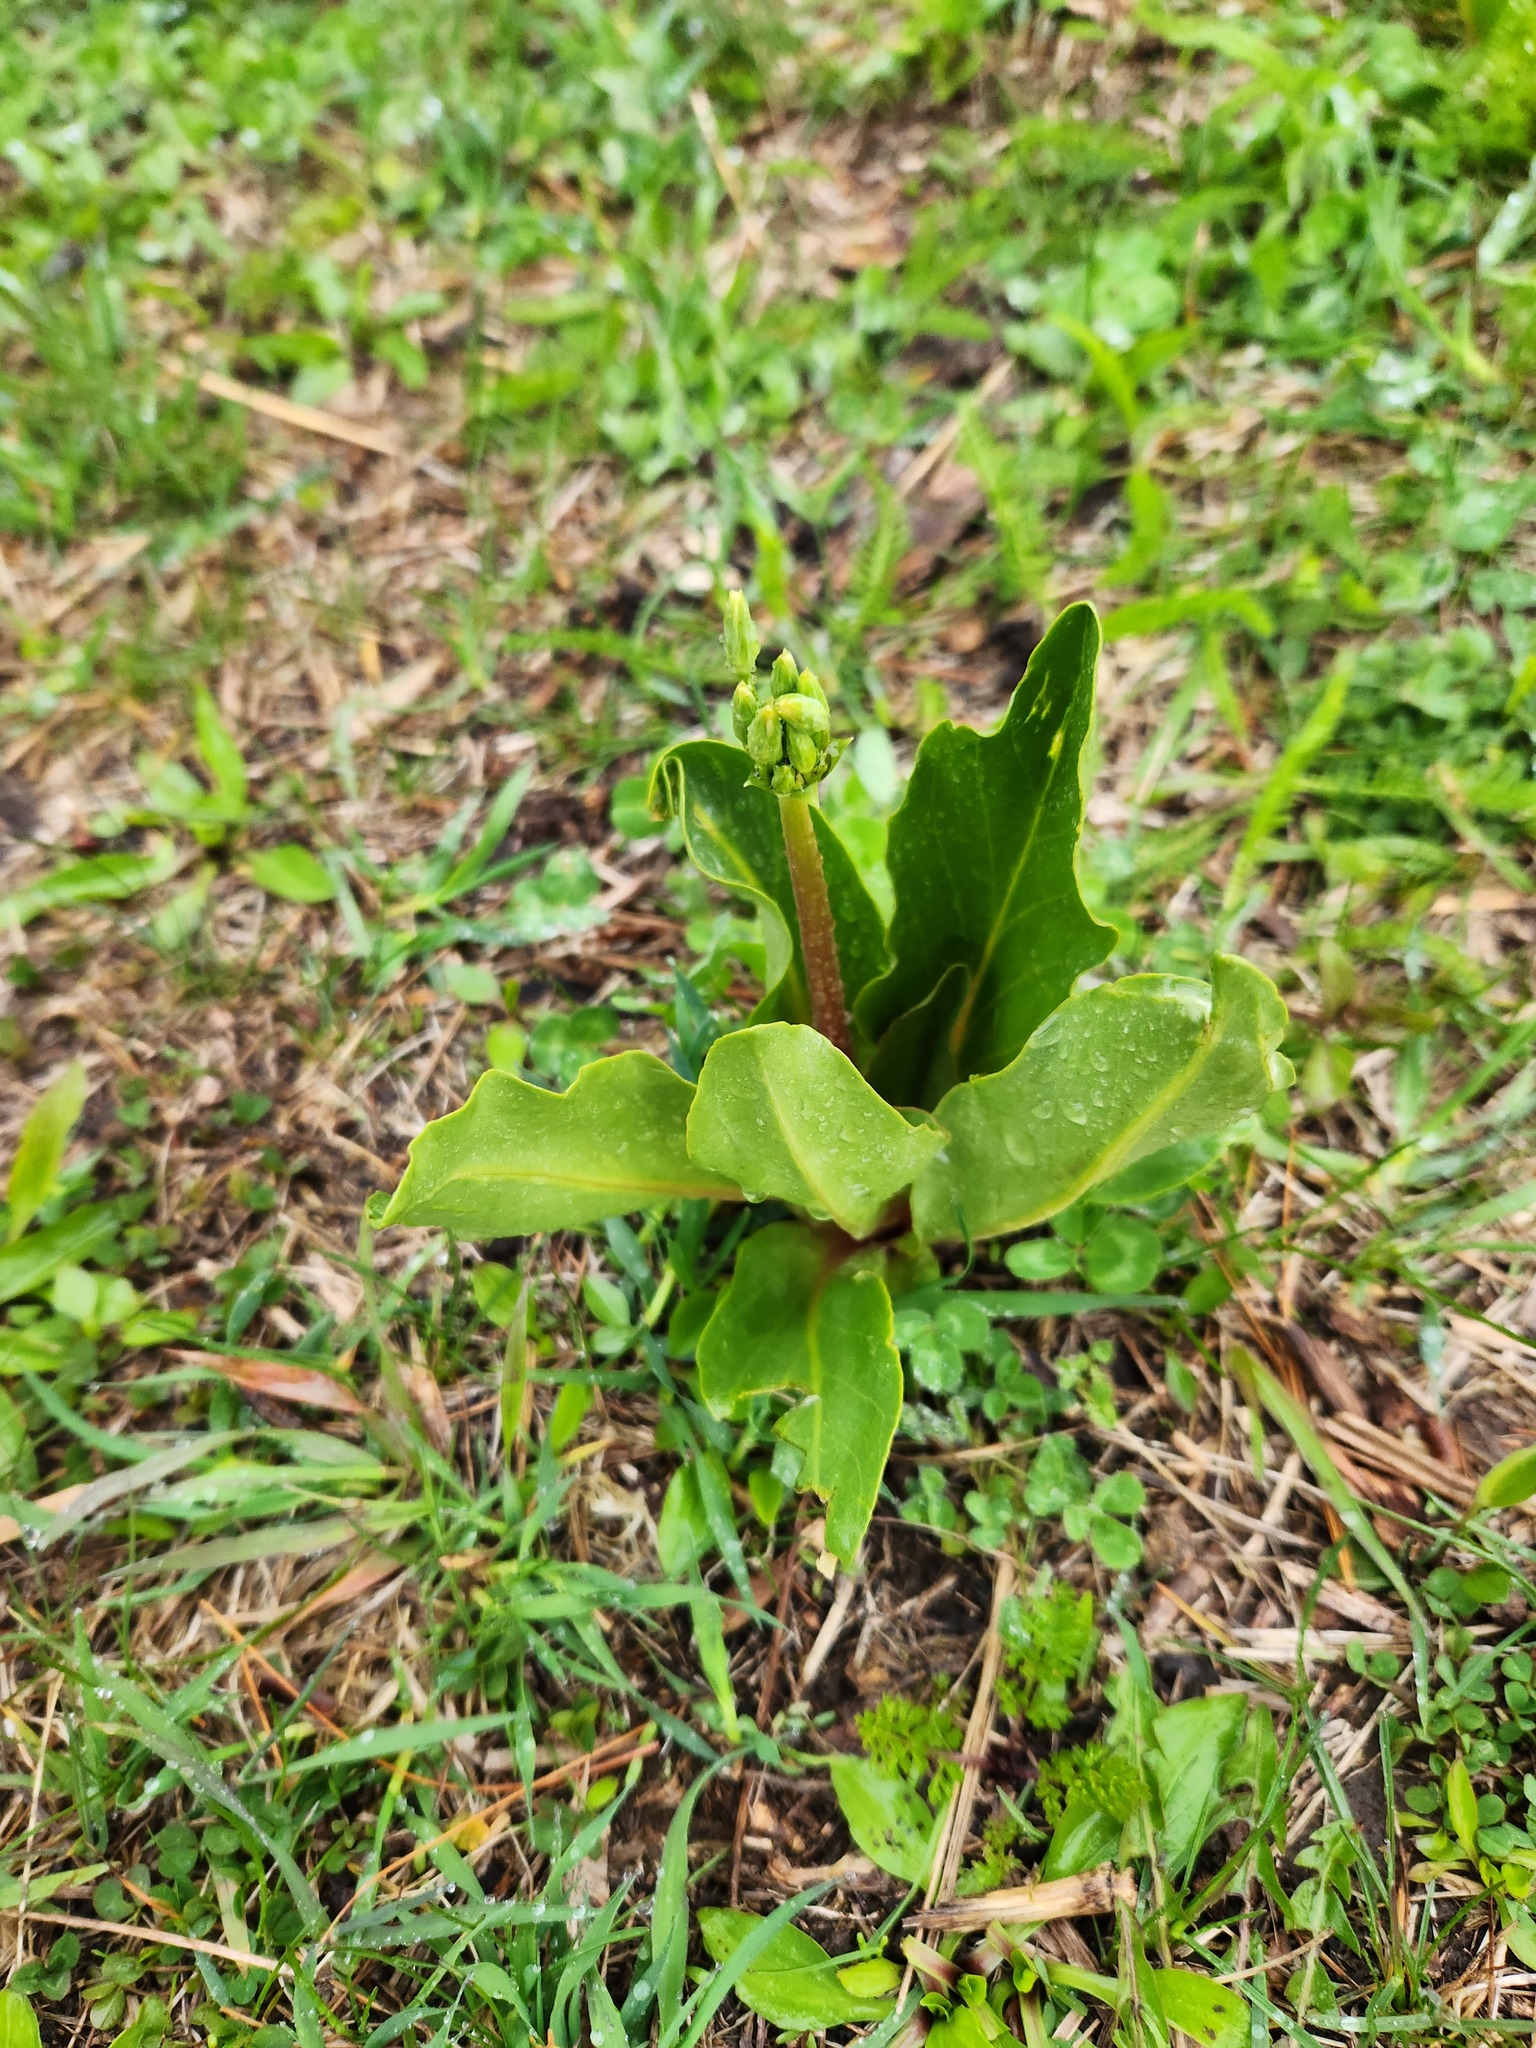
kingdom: Plantae
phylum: Tracheophyta
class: Magnoliopsida
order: Ericales
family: Primulaceae
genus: Dodecatheon
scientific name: Dodecatheon meadia
